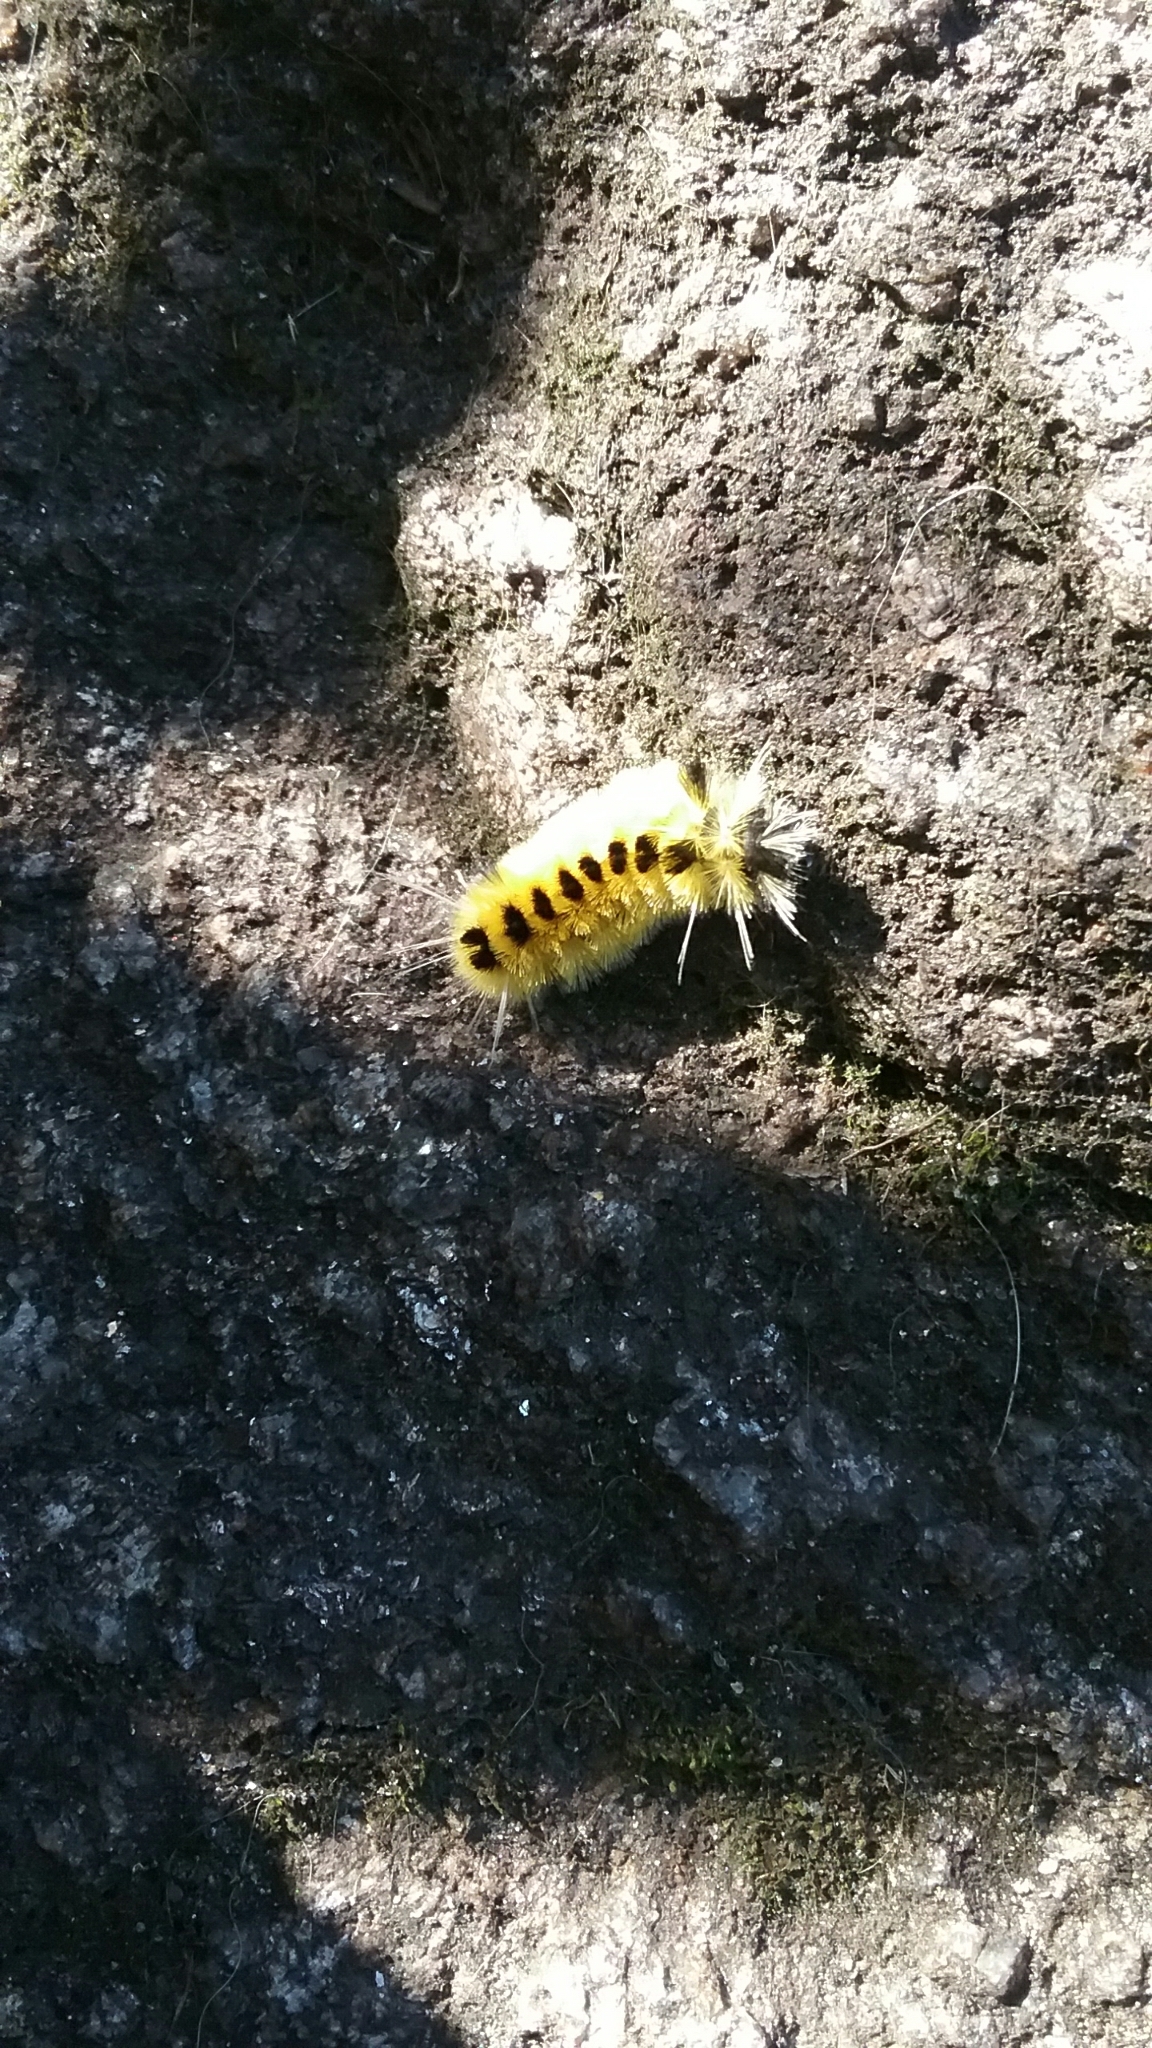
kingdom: Animalia
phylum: Arthropoda
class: Insecta
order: Lepidoptera
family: Erebidae
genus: Lophocampa
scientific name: Lophocampa maculata
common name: Spotted tussock moth
